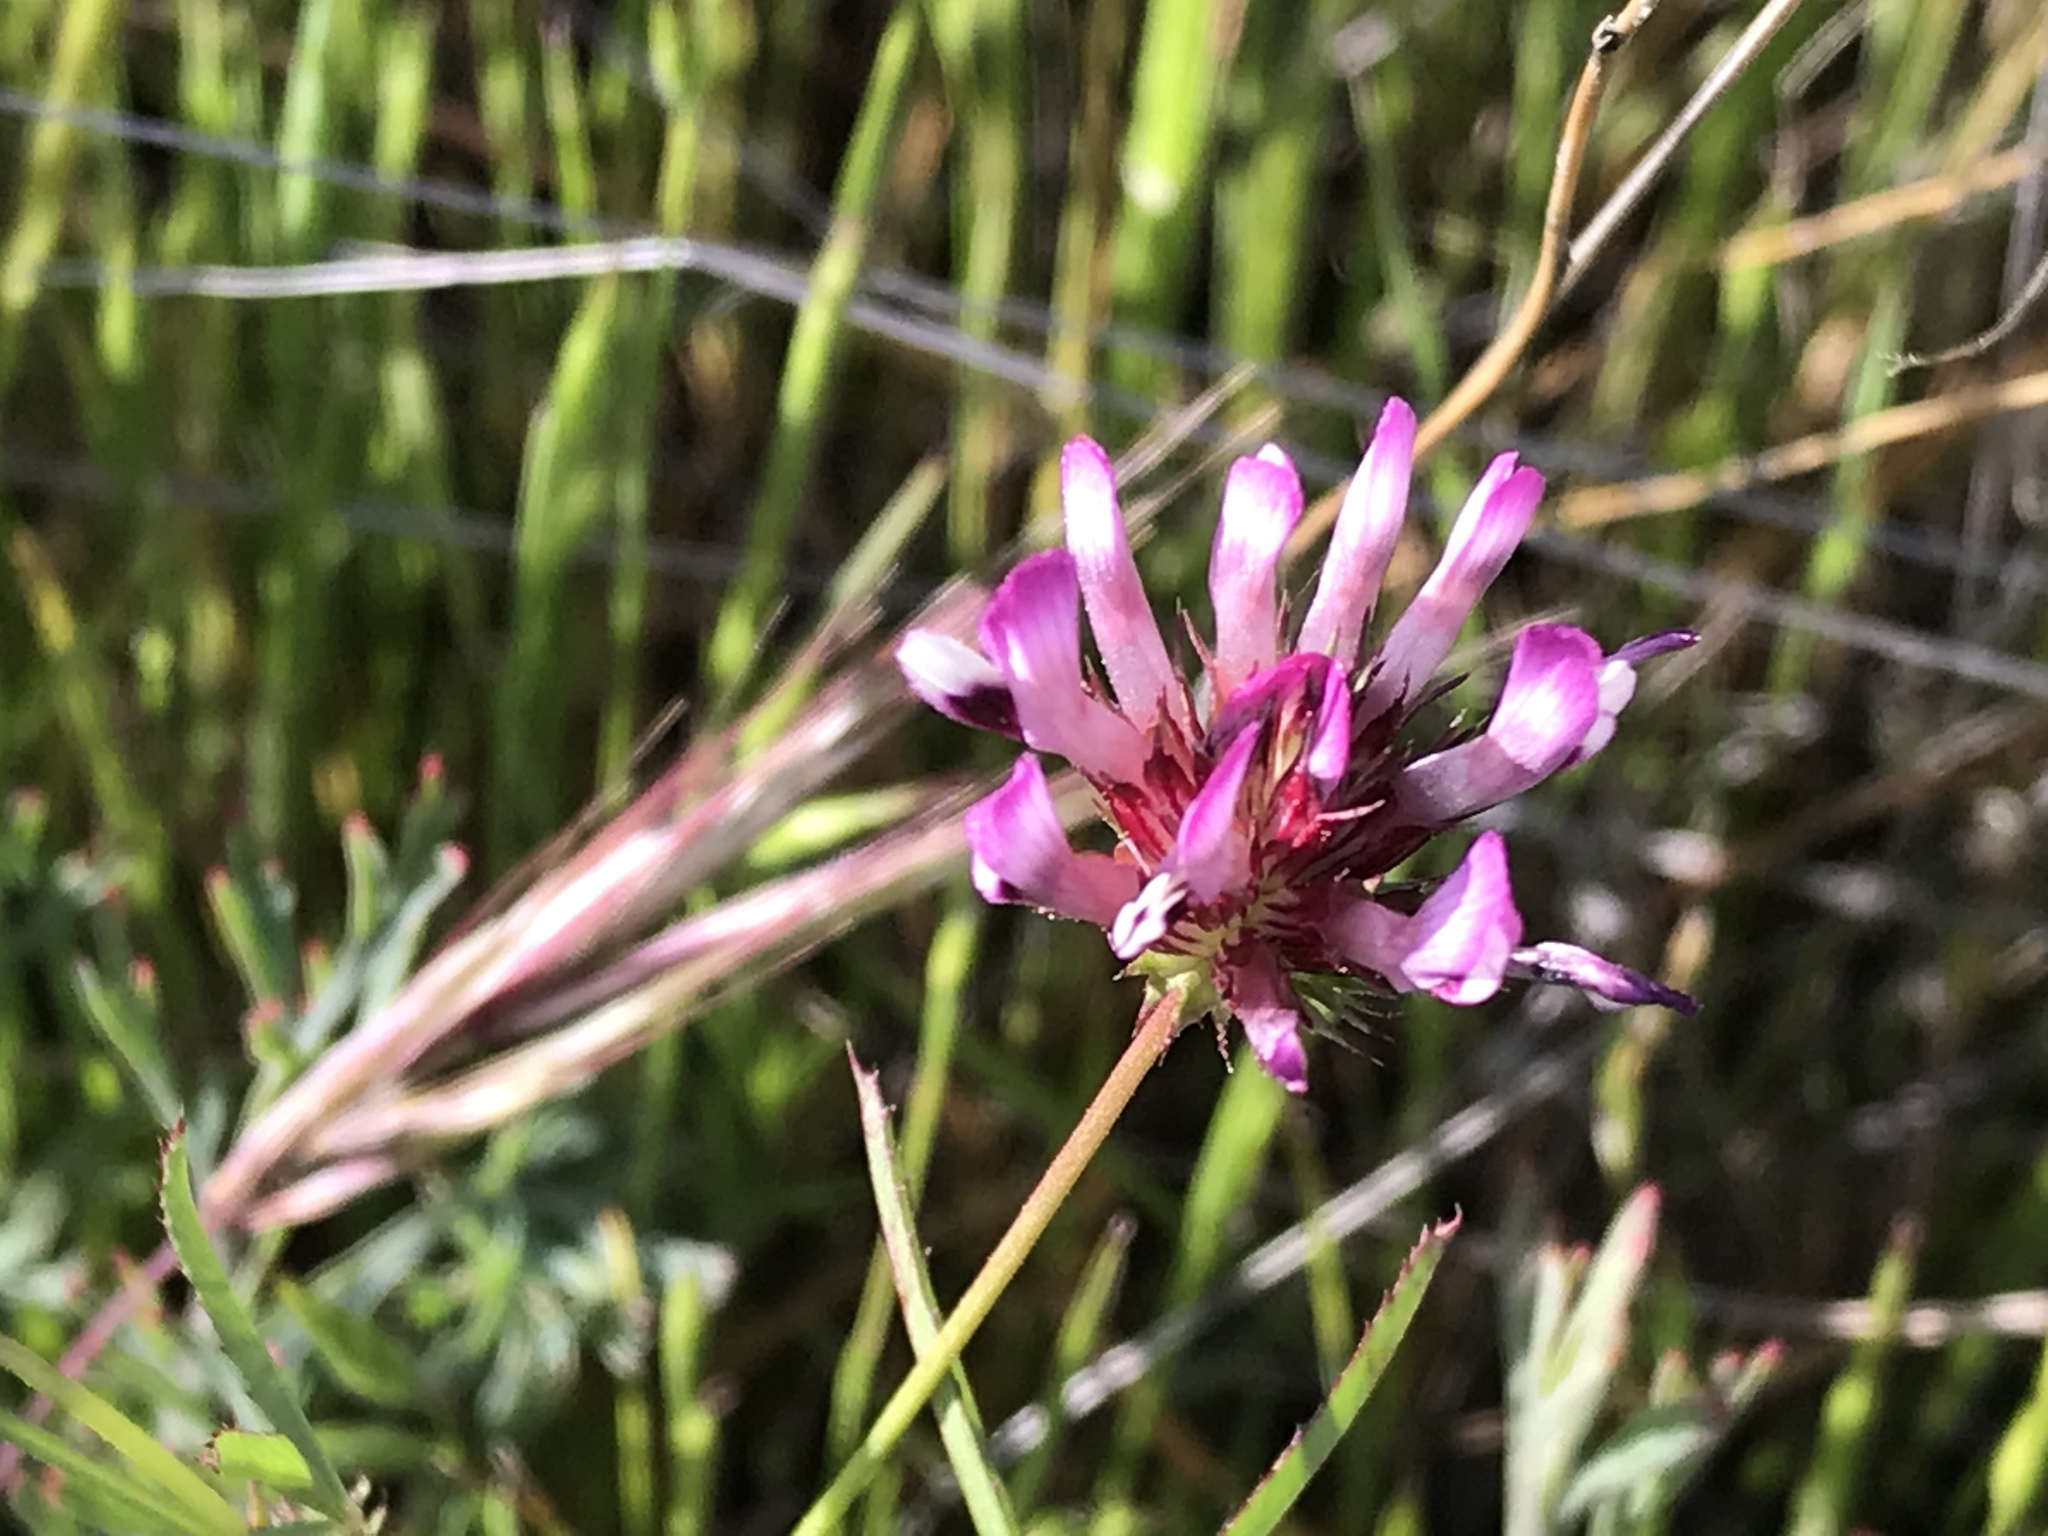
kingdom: Plantae
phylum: Tracheophyta
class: Magnoliopsida
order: Fabales
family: Fabaceae
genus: Trifolium
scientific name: Trifolium willdenovii
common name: Tomcat clover
